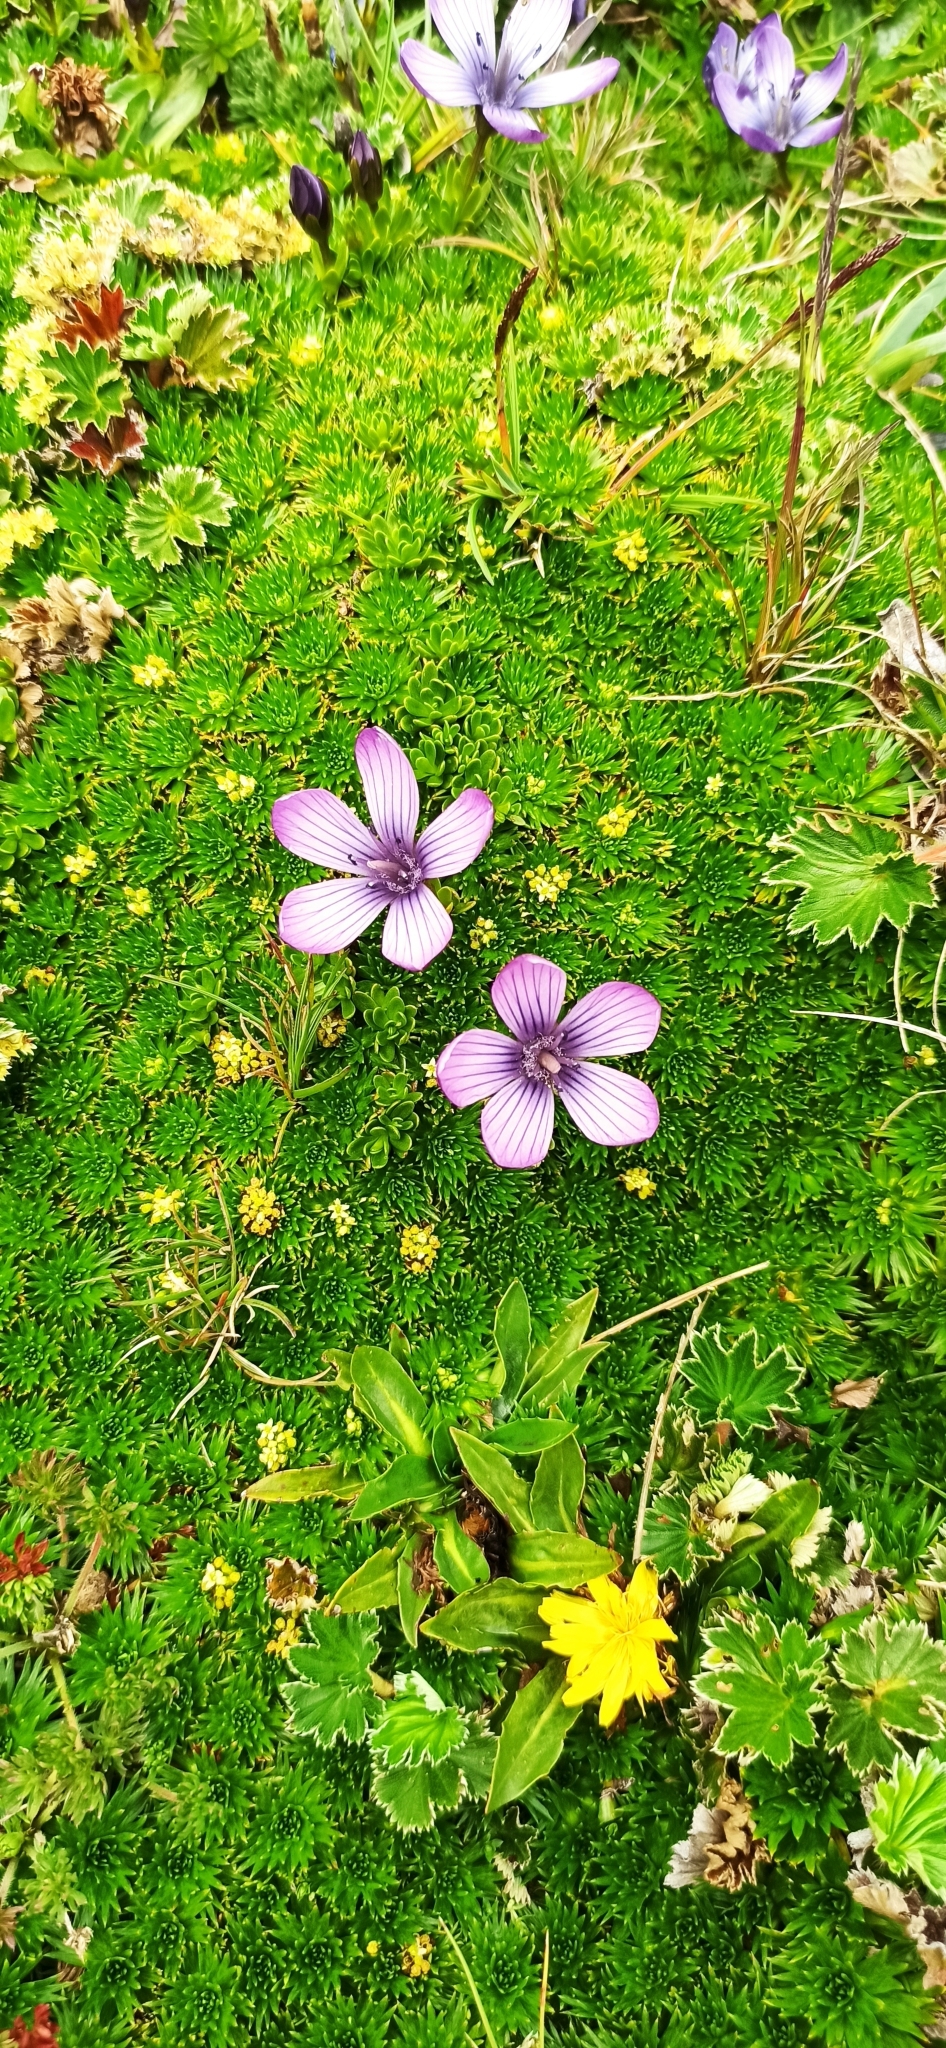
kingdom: Plantae
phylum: Tracheophyta
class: Magnoliopsida
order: Gentianales
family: Gentianaceae
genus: Gentianella
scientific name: Gentianella cerastioides
